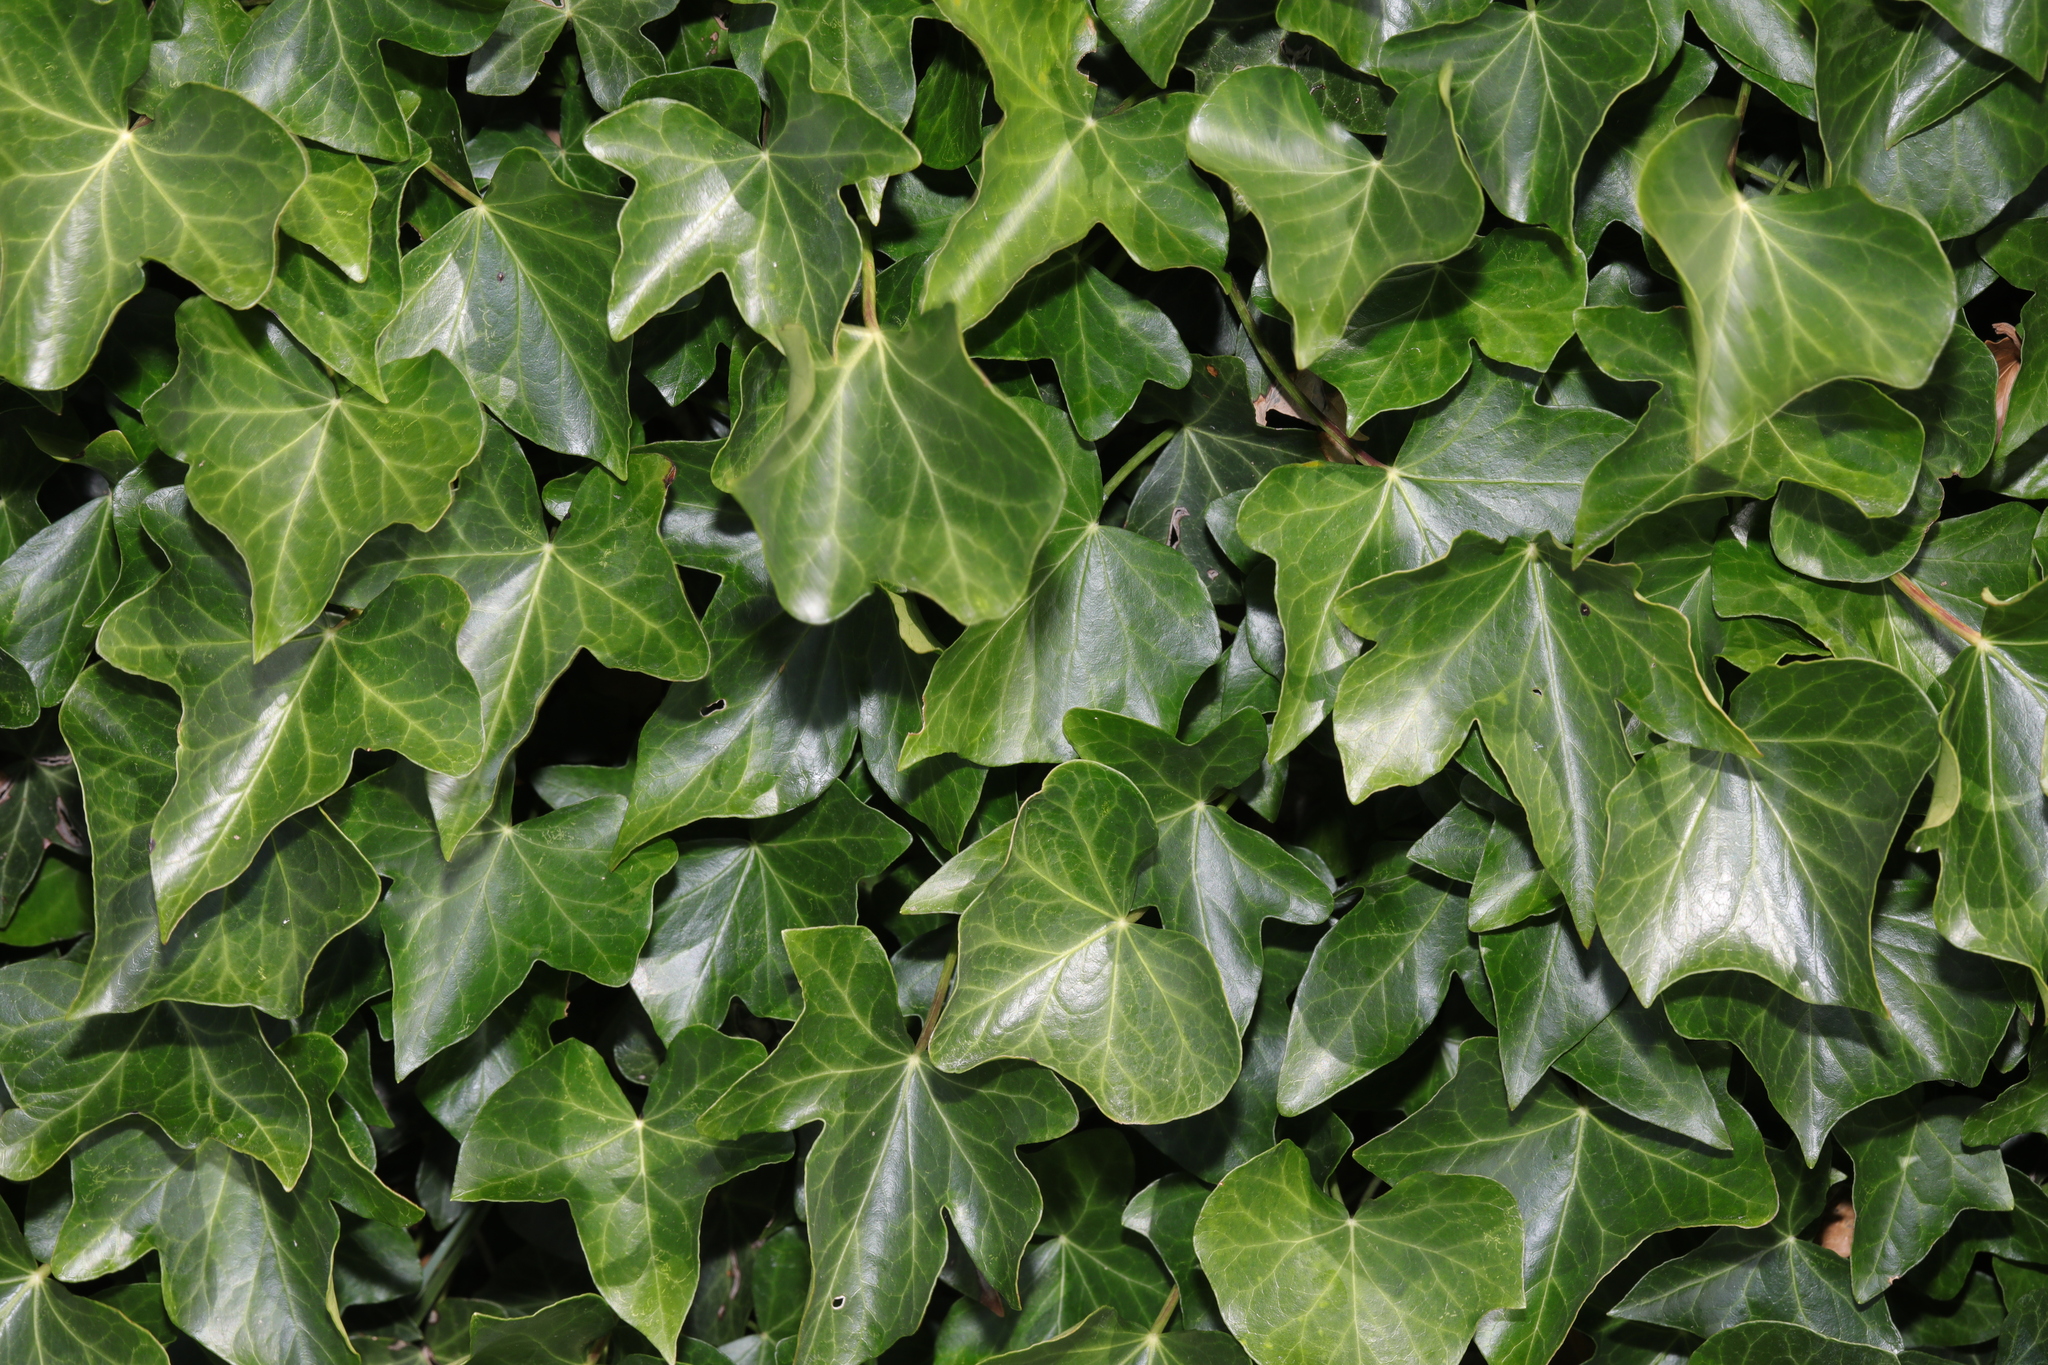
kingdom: Plantae
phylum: Tracheophyta
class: Magnoliopsida
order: Apiales
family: Araliaceae
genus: Hedera
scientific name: Hedera helix
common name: Ivy
